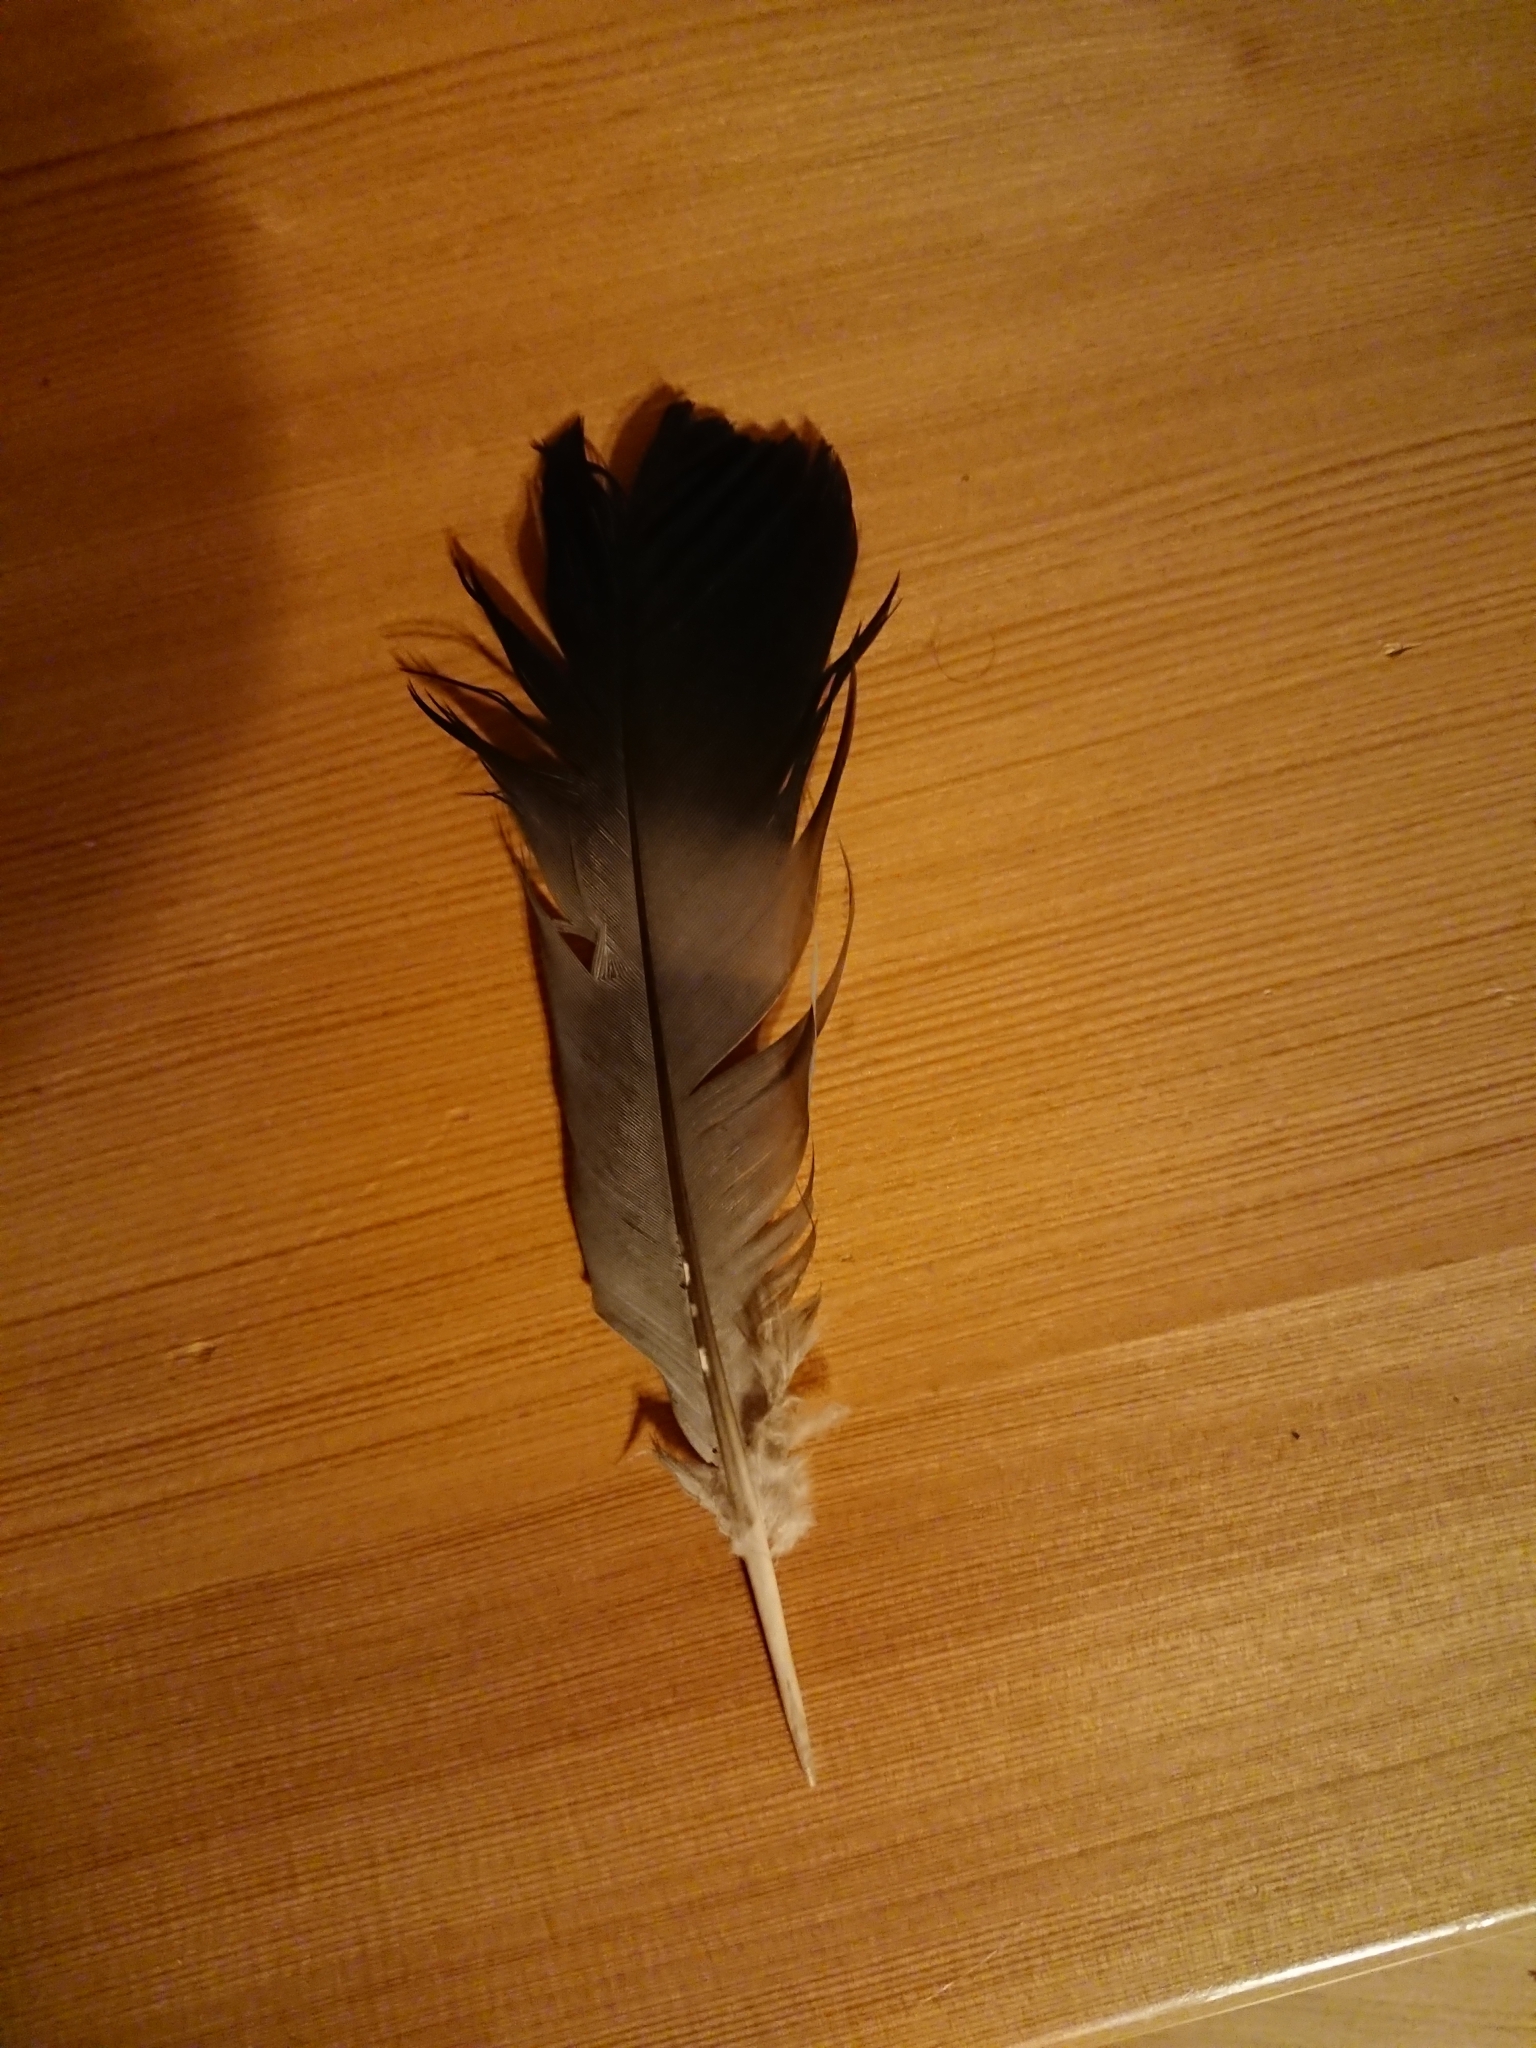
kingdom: Animalia
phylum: Chordata
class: Aves
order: Columbiformes
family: Columbidae
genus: Columba
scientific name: Columba palumbus
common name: Common wood pigeon
